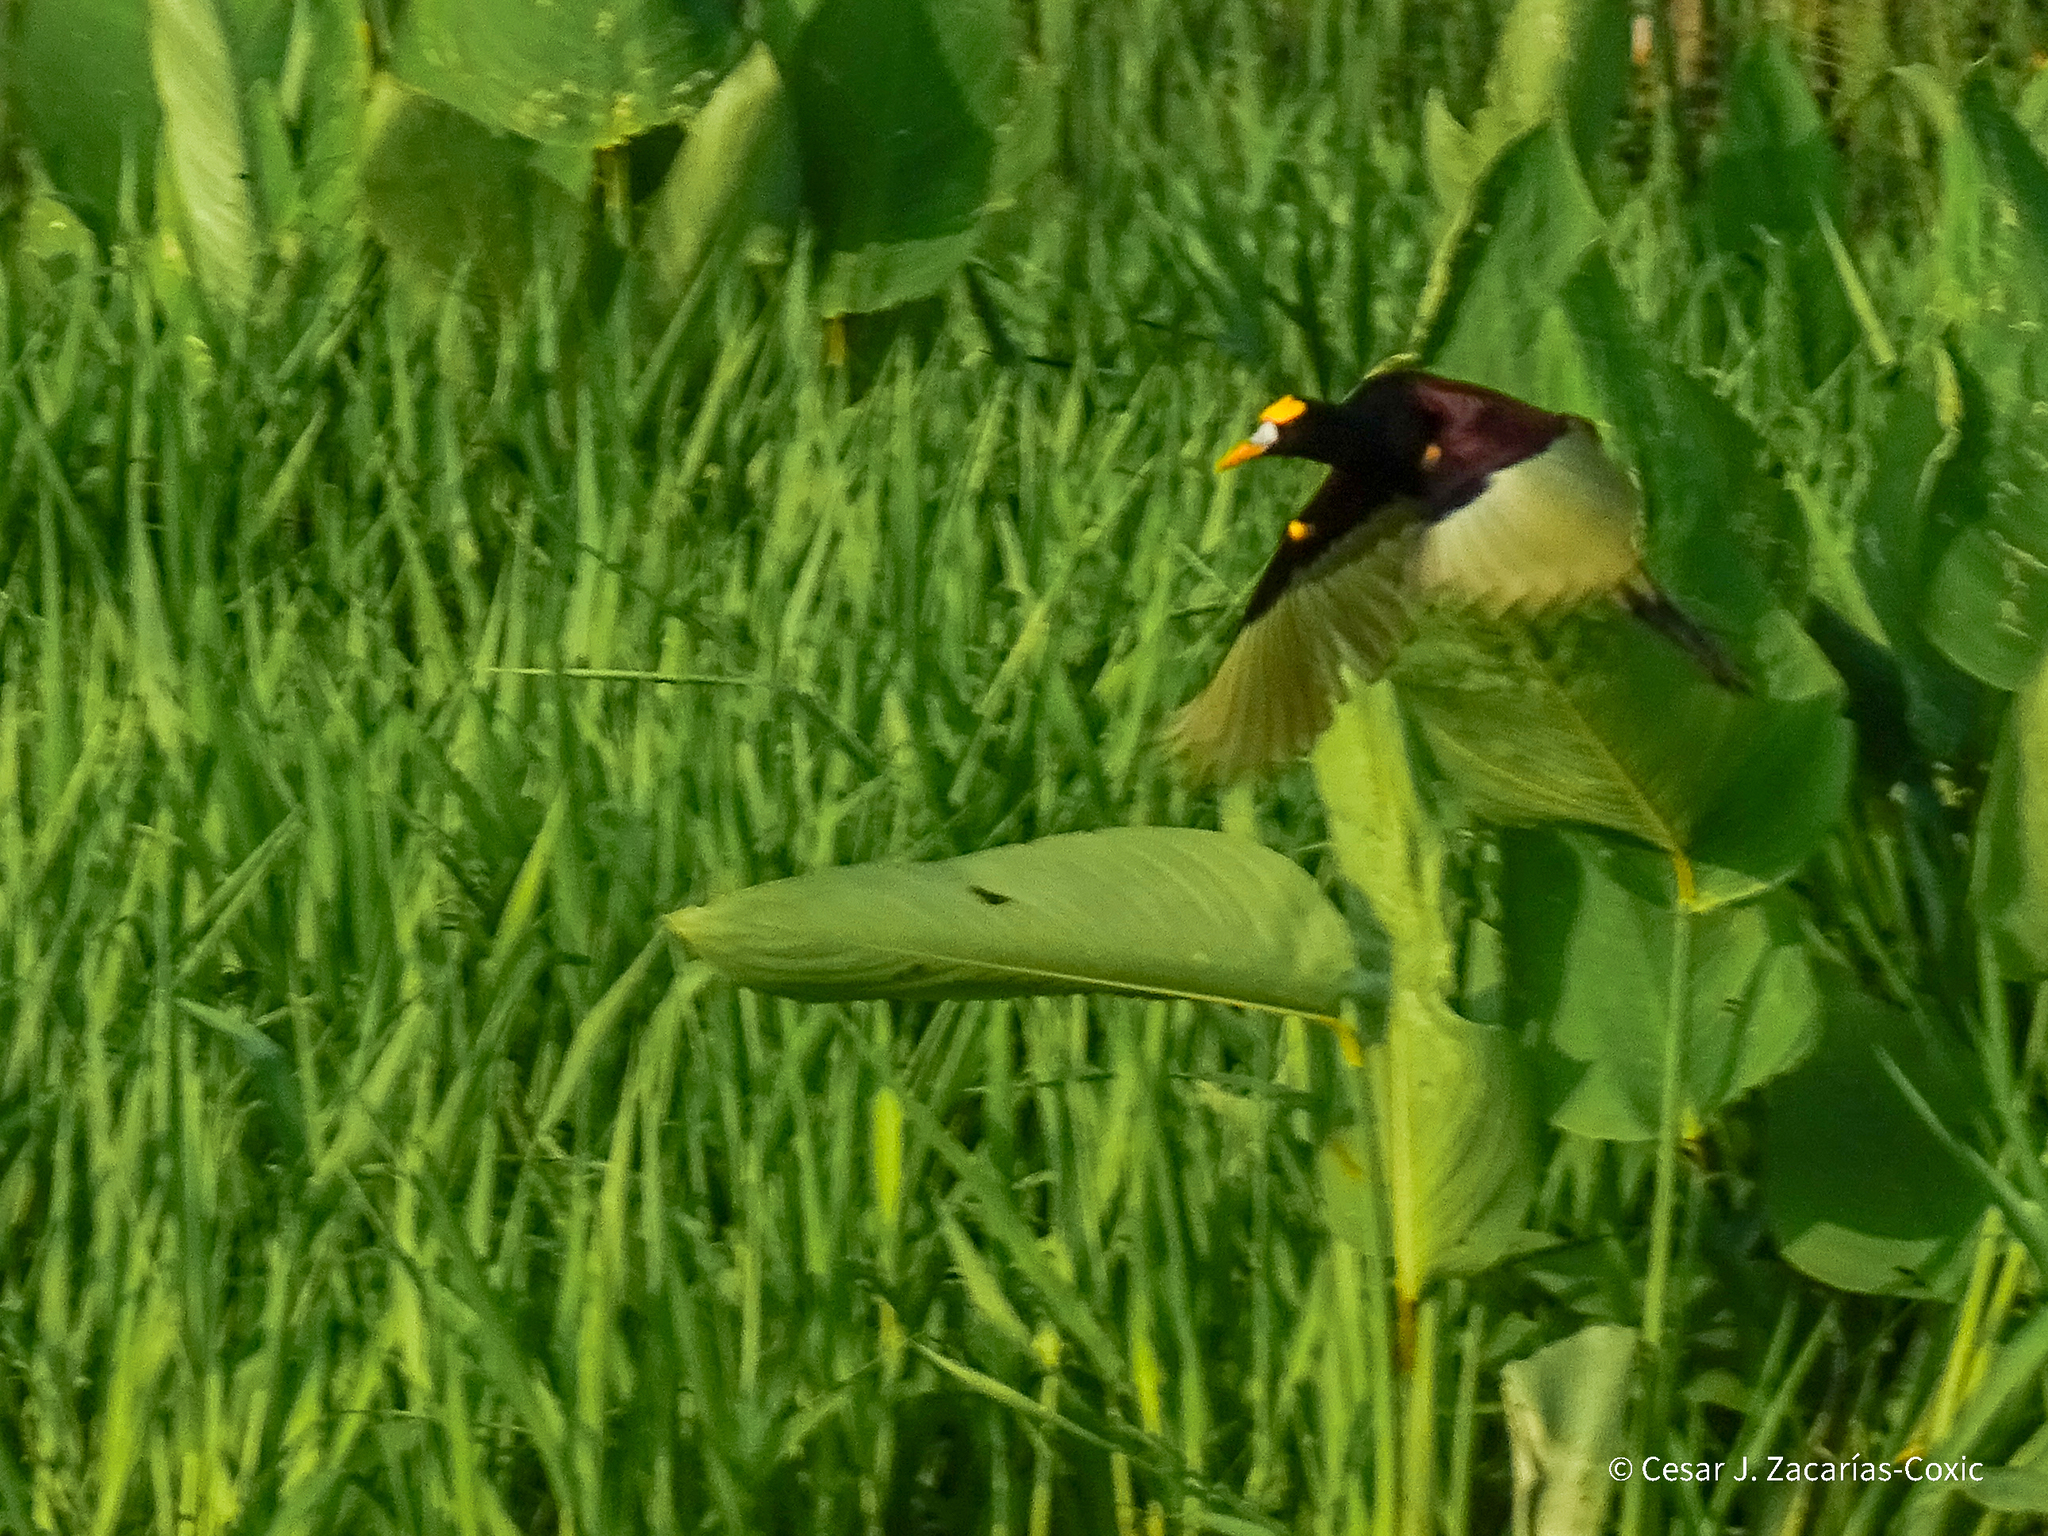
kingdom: Animalia
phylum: Chordata
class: Aves
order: Charadriiformes
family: Jacanidae
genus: Jacana
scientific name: Jacana spinosa
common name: Northern jacana
